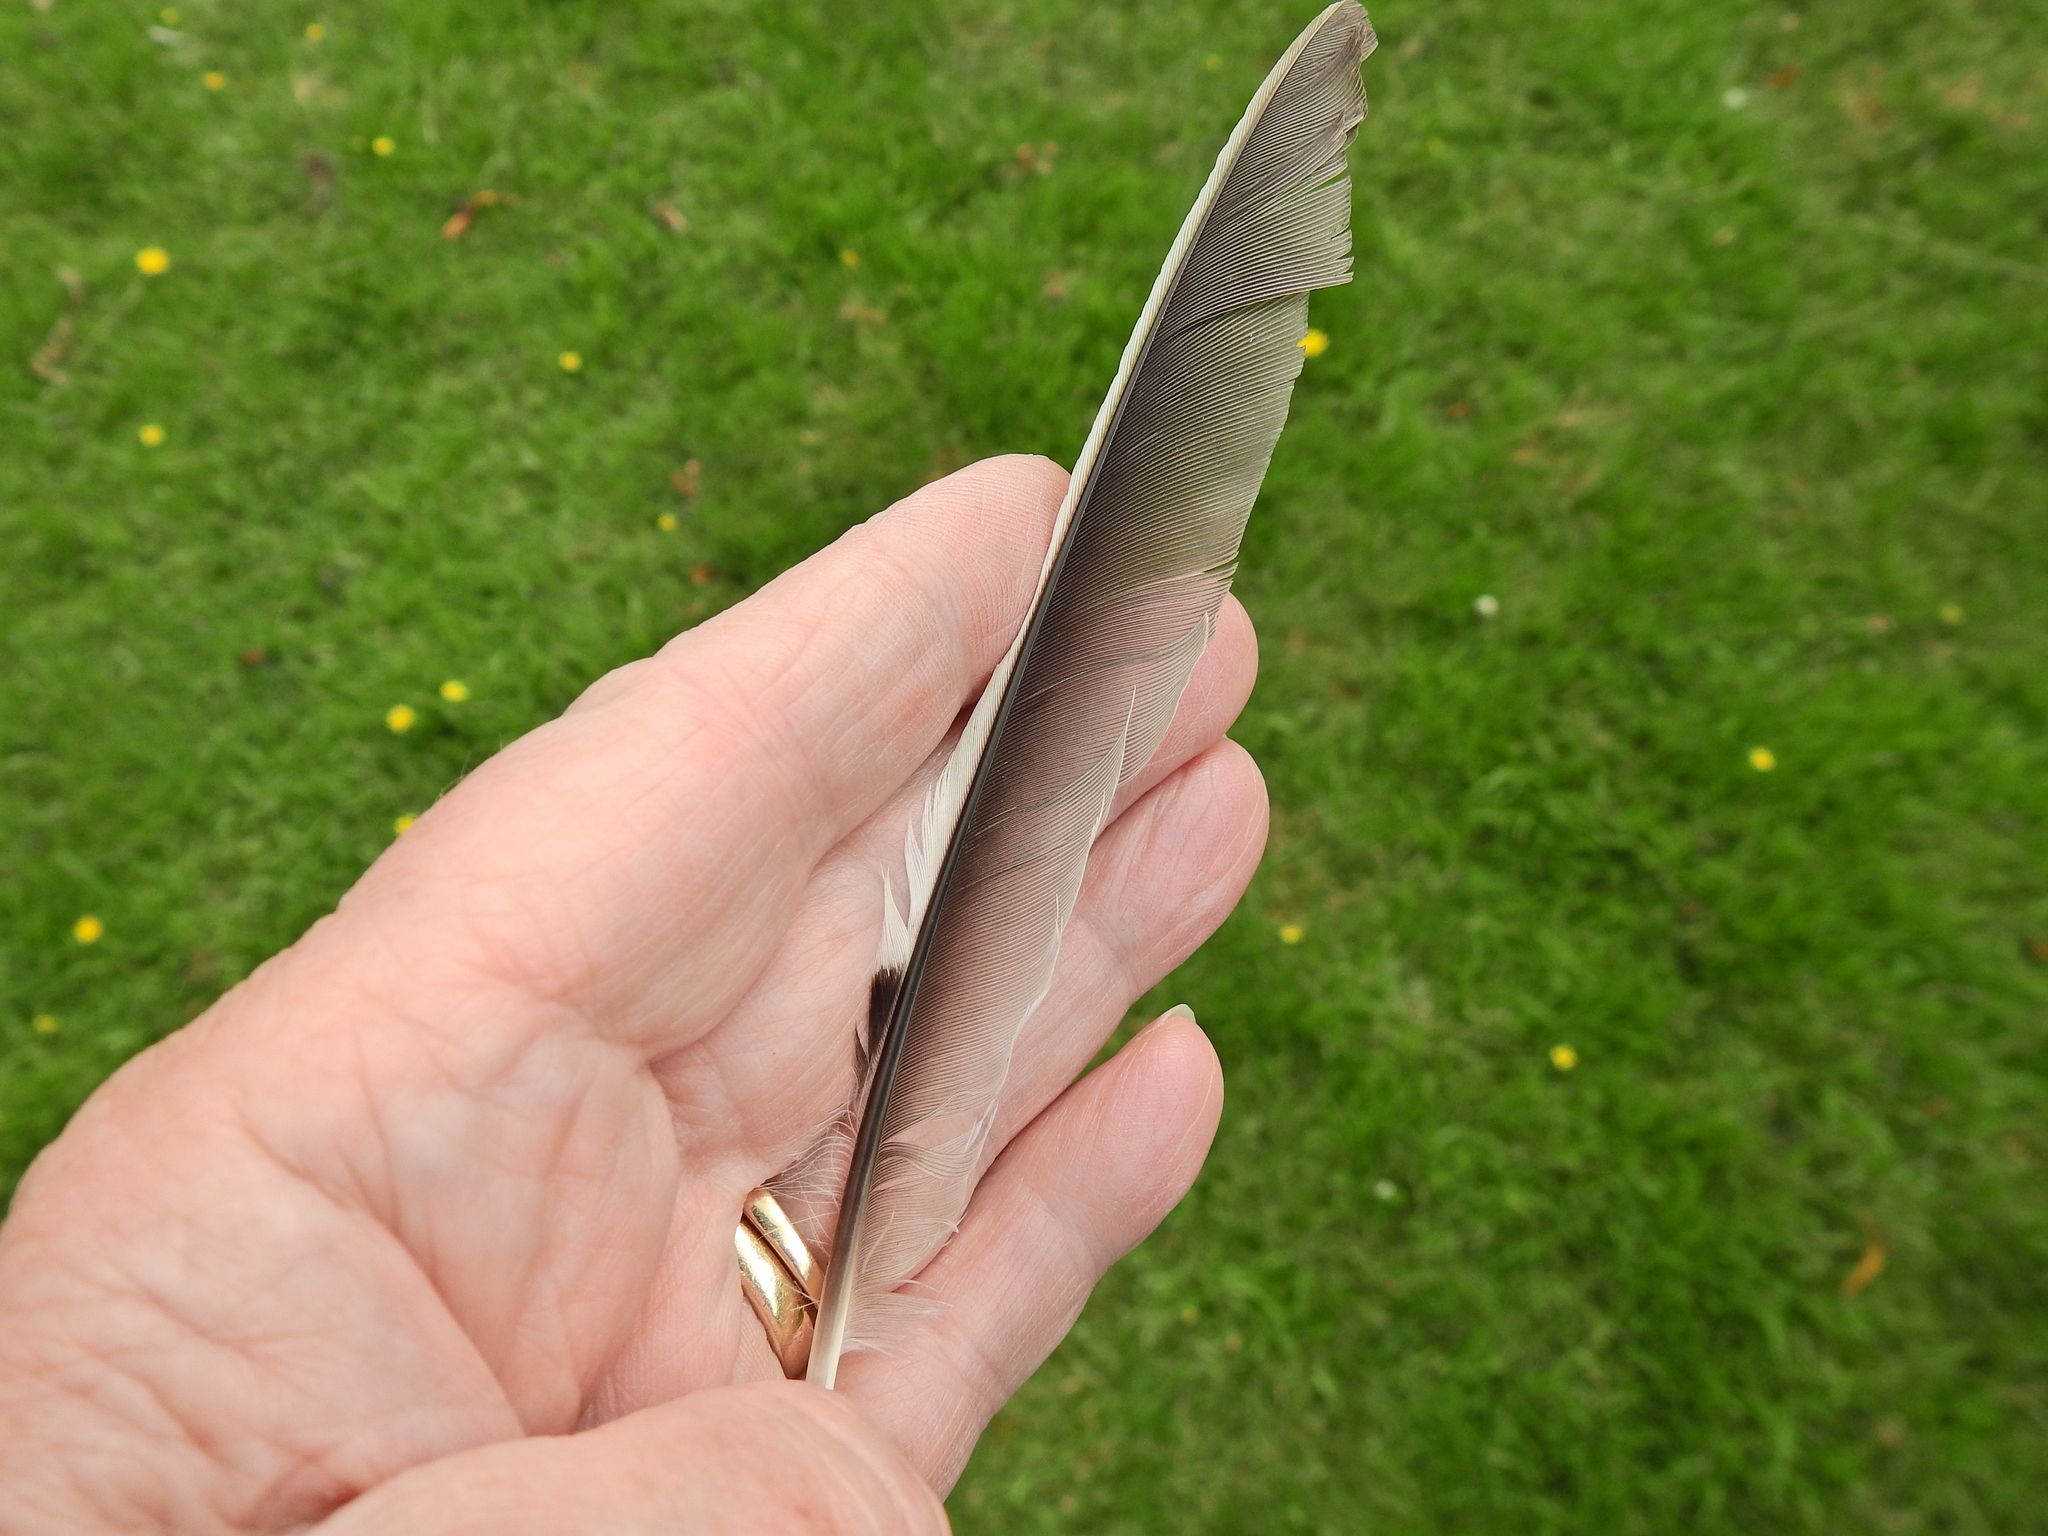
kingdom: Animalia
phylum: Chordata
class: Aves
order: Passeriformes
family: Corvidae
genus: Garrulus
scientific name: Garrulus glandarius
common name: Eurasian jay
